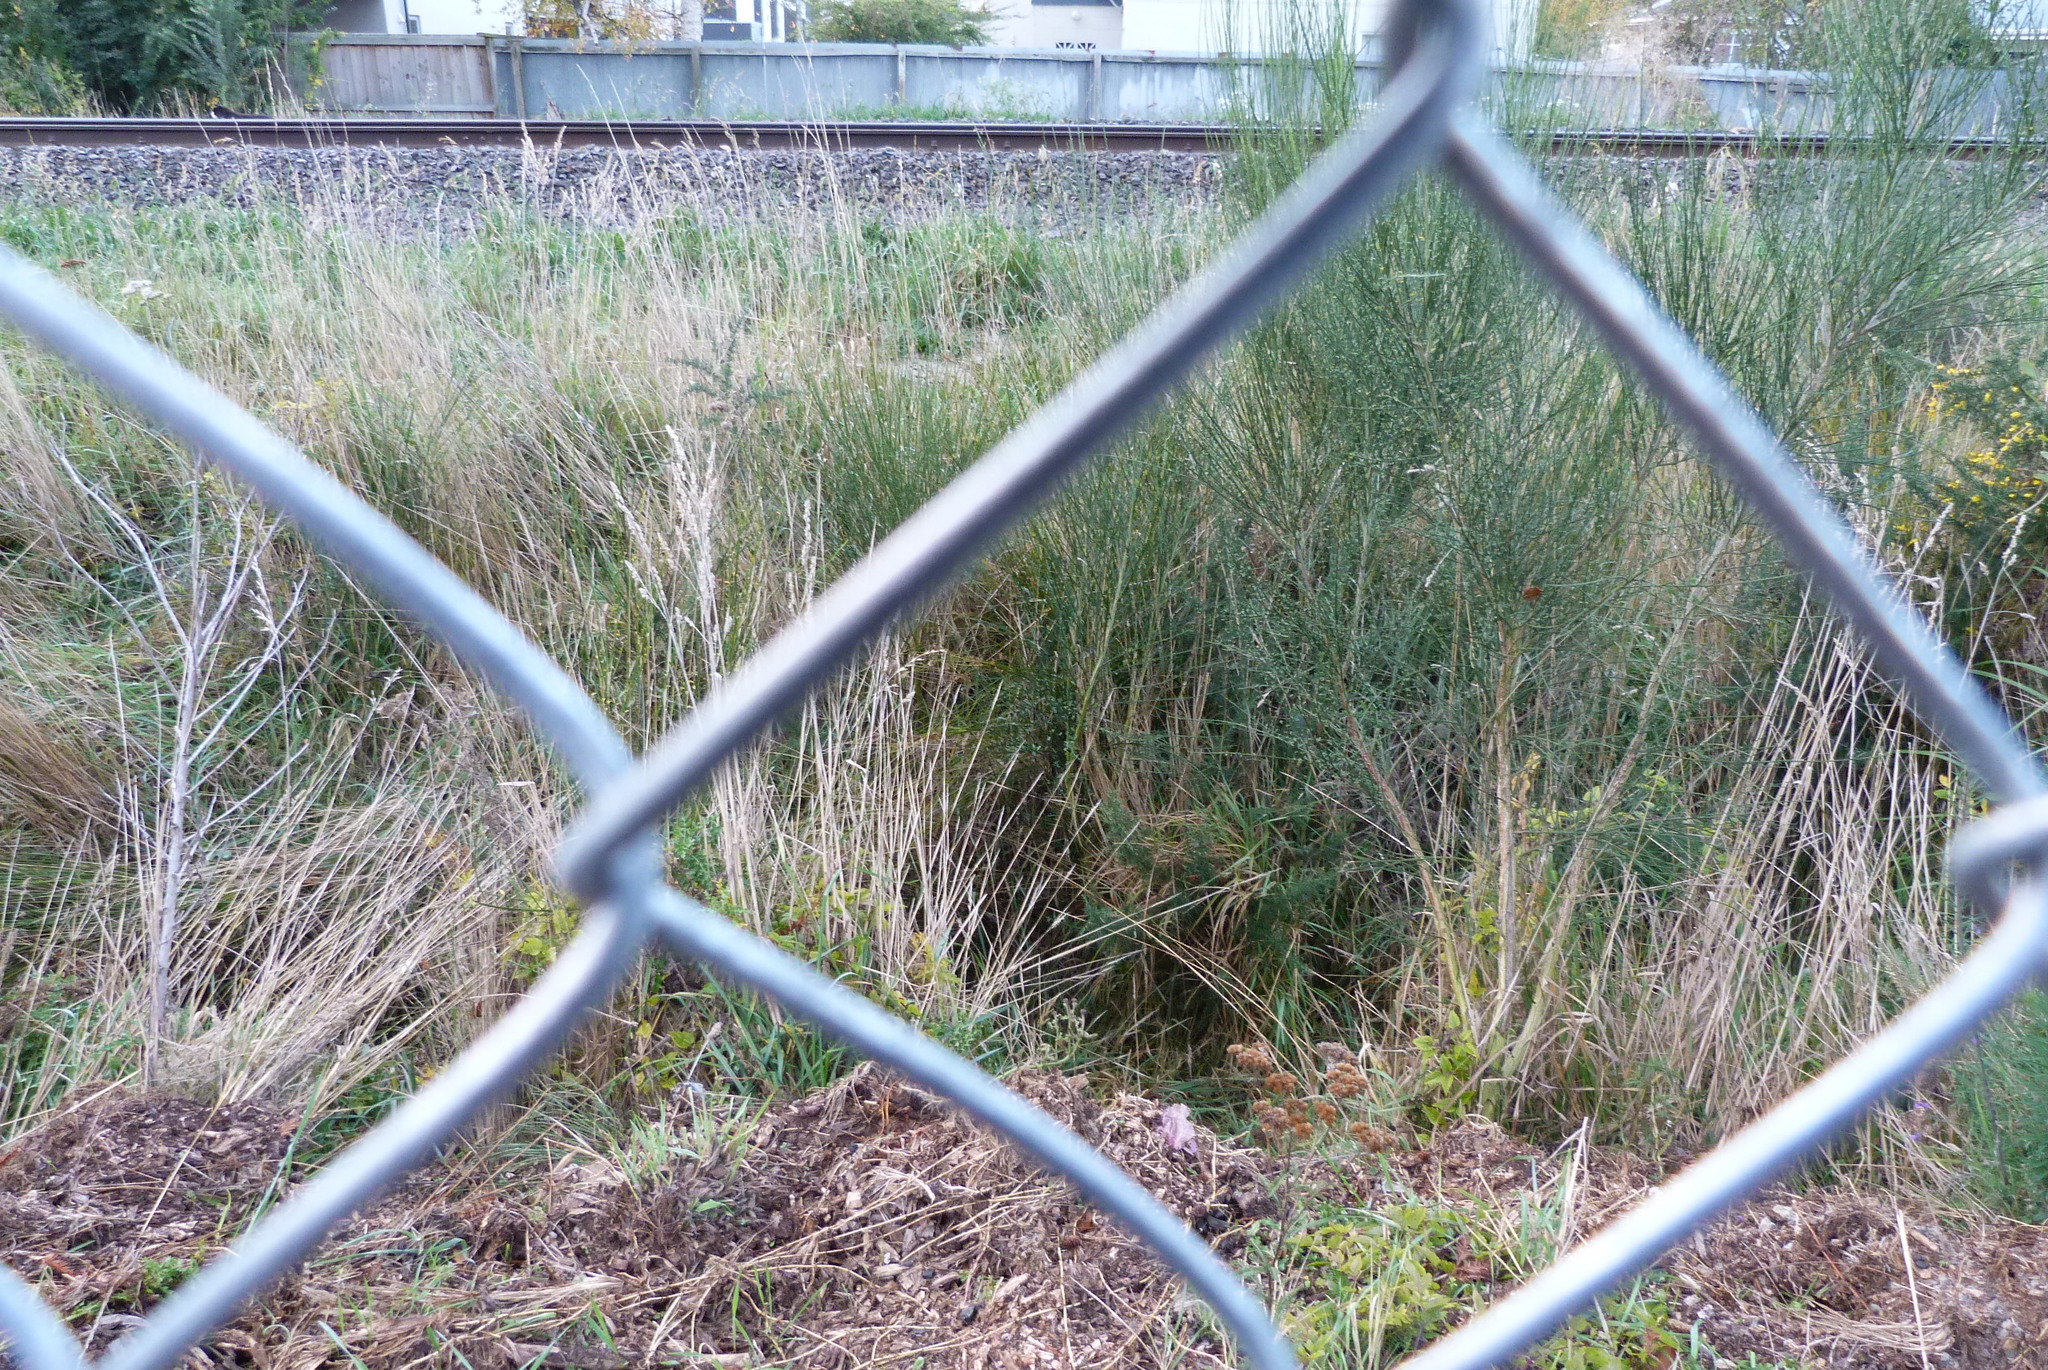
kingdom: Plantae
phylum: Tracheophyta
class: Magnoliopsida
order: Fabales
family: Fabaceae
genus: Cytisus
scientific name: Cytisus scoparius
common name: Scotch broom
